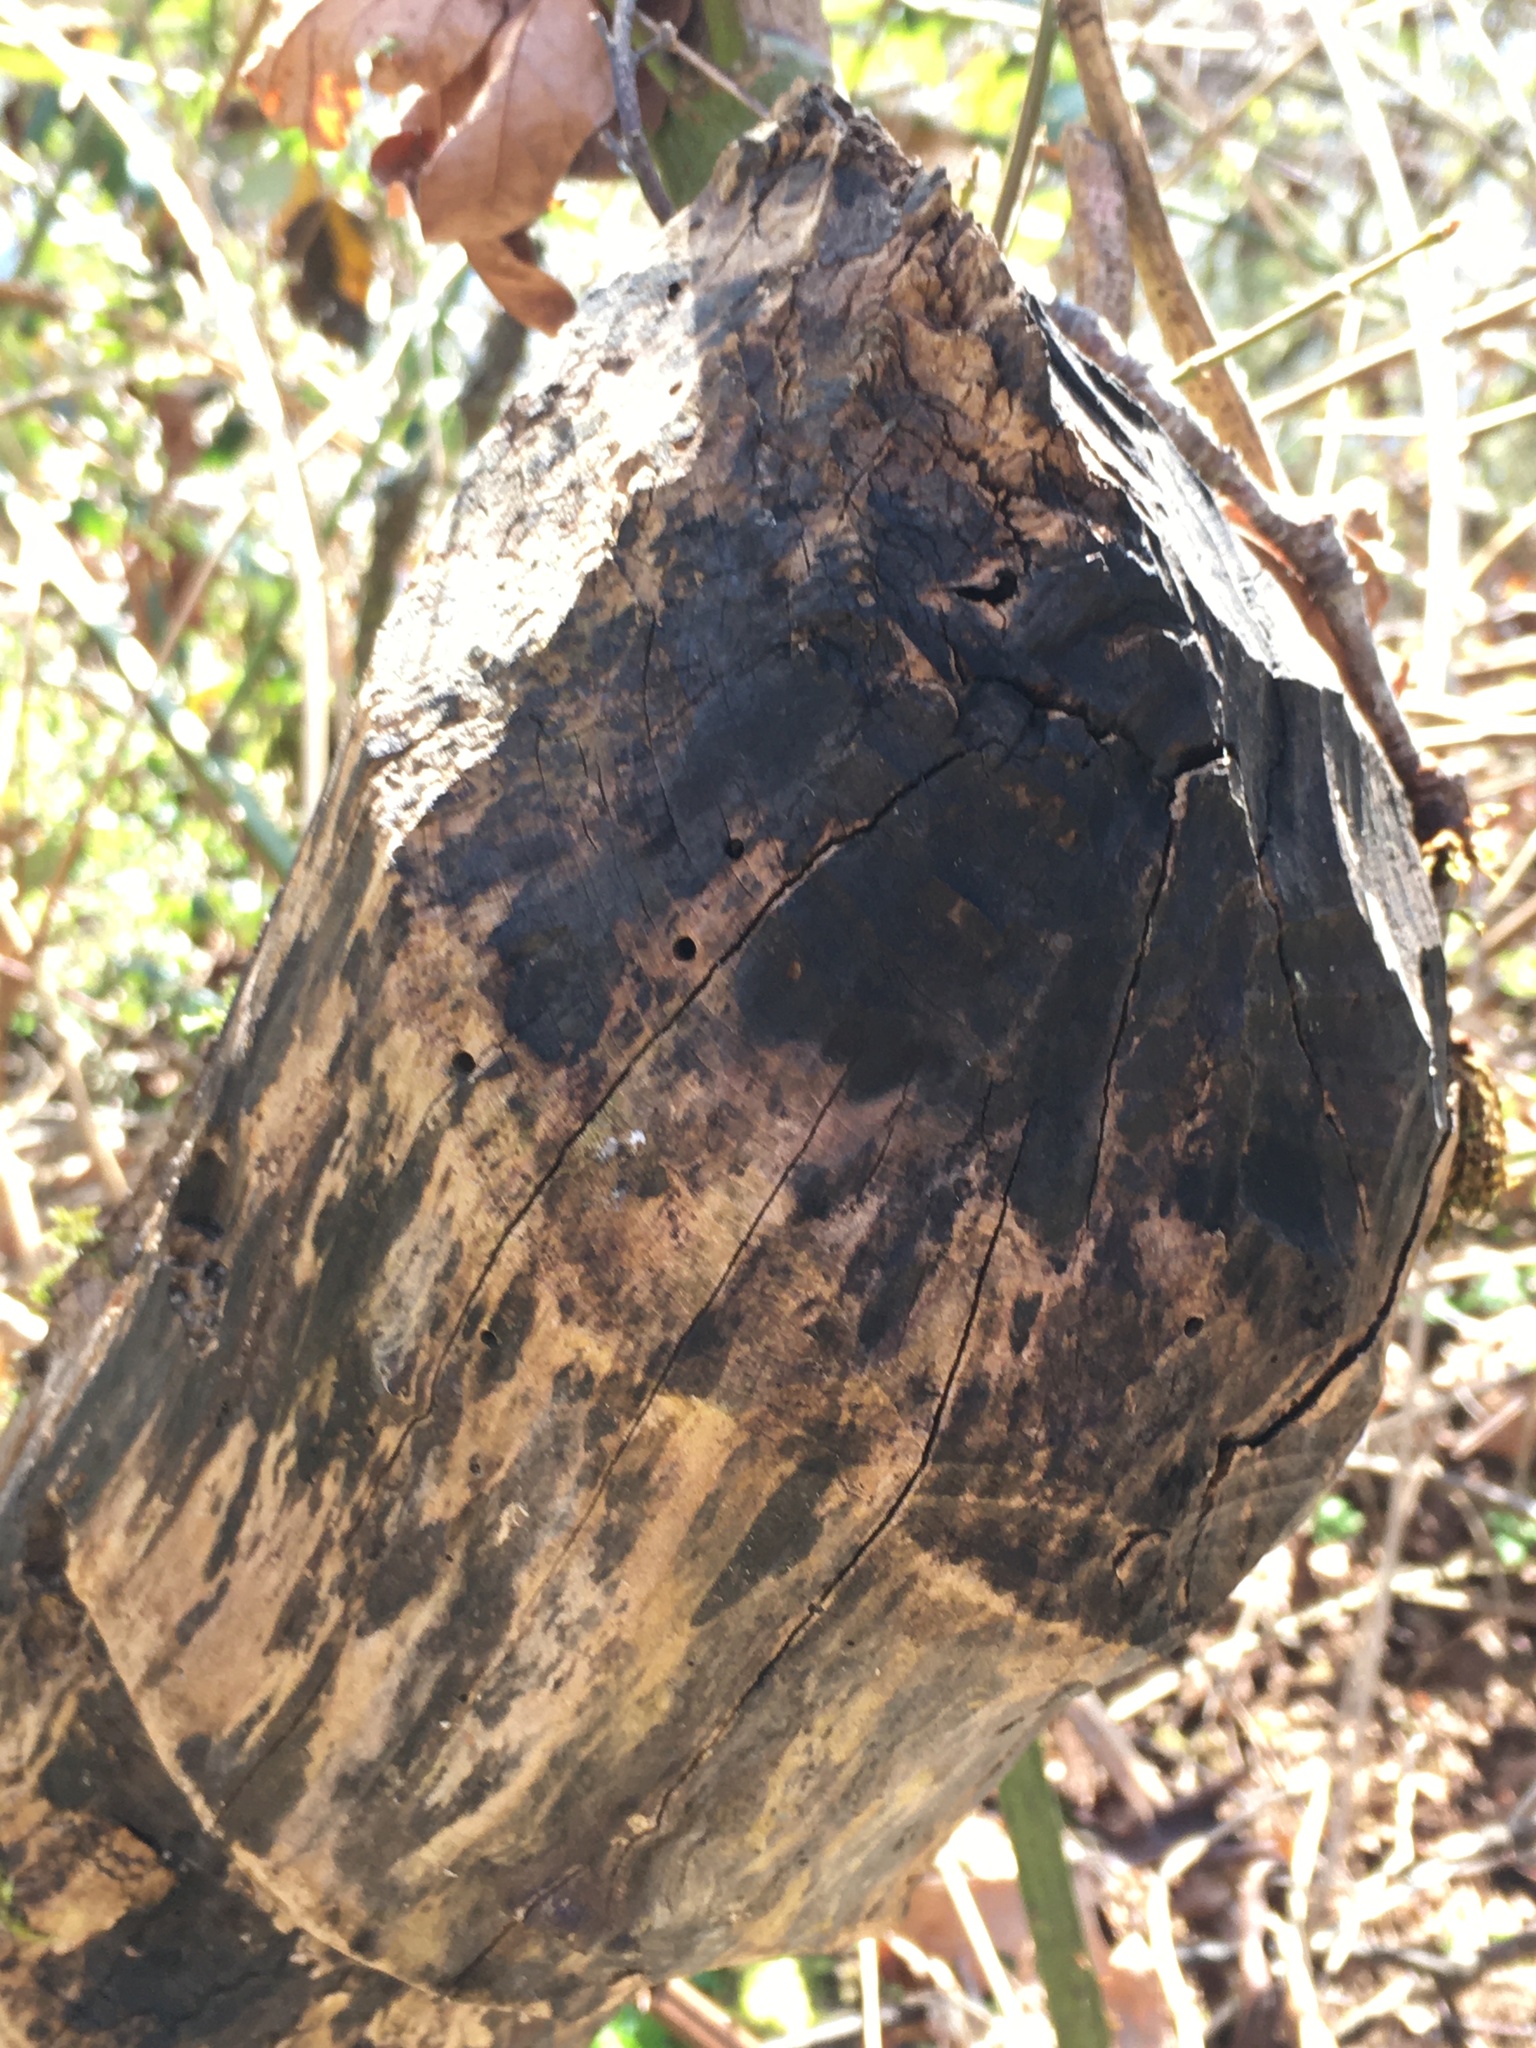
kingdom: Animalia
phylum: Chordata
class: Mammalia
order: Rodentia
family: Castoridae
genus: Castor
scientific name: Castor canadensis
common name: American beaver
